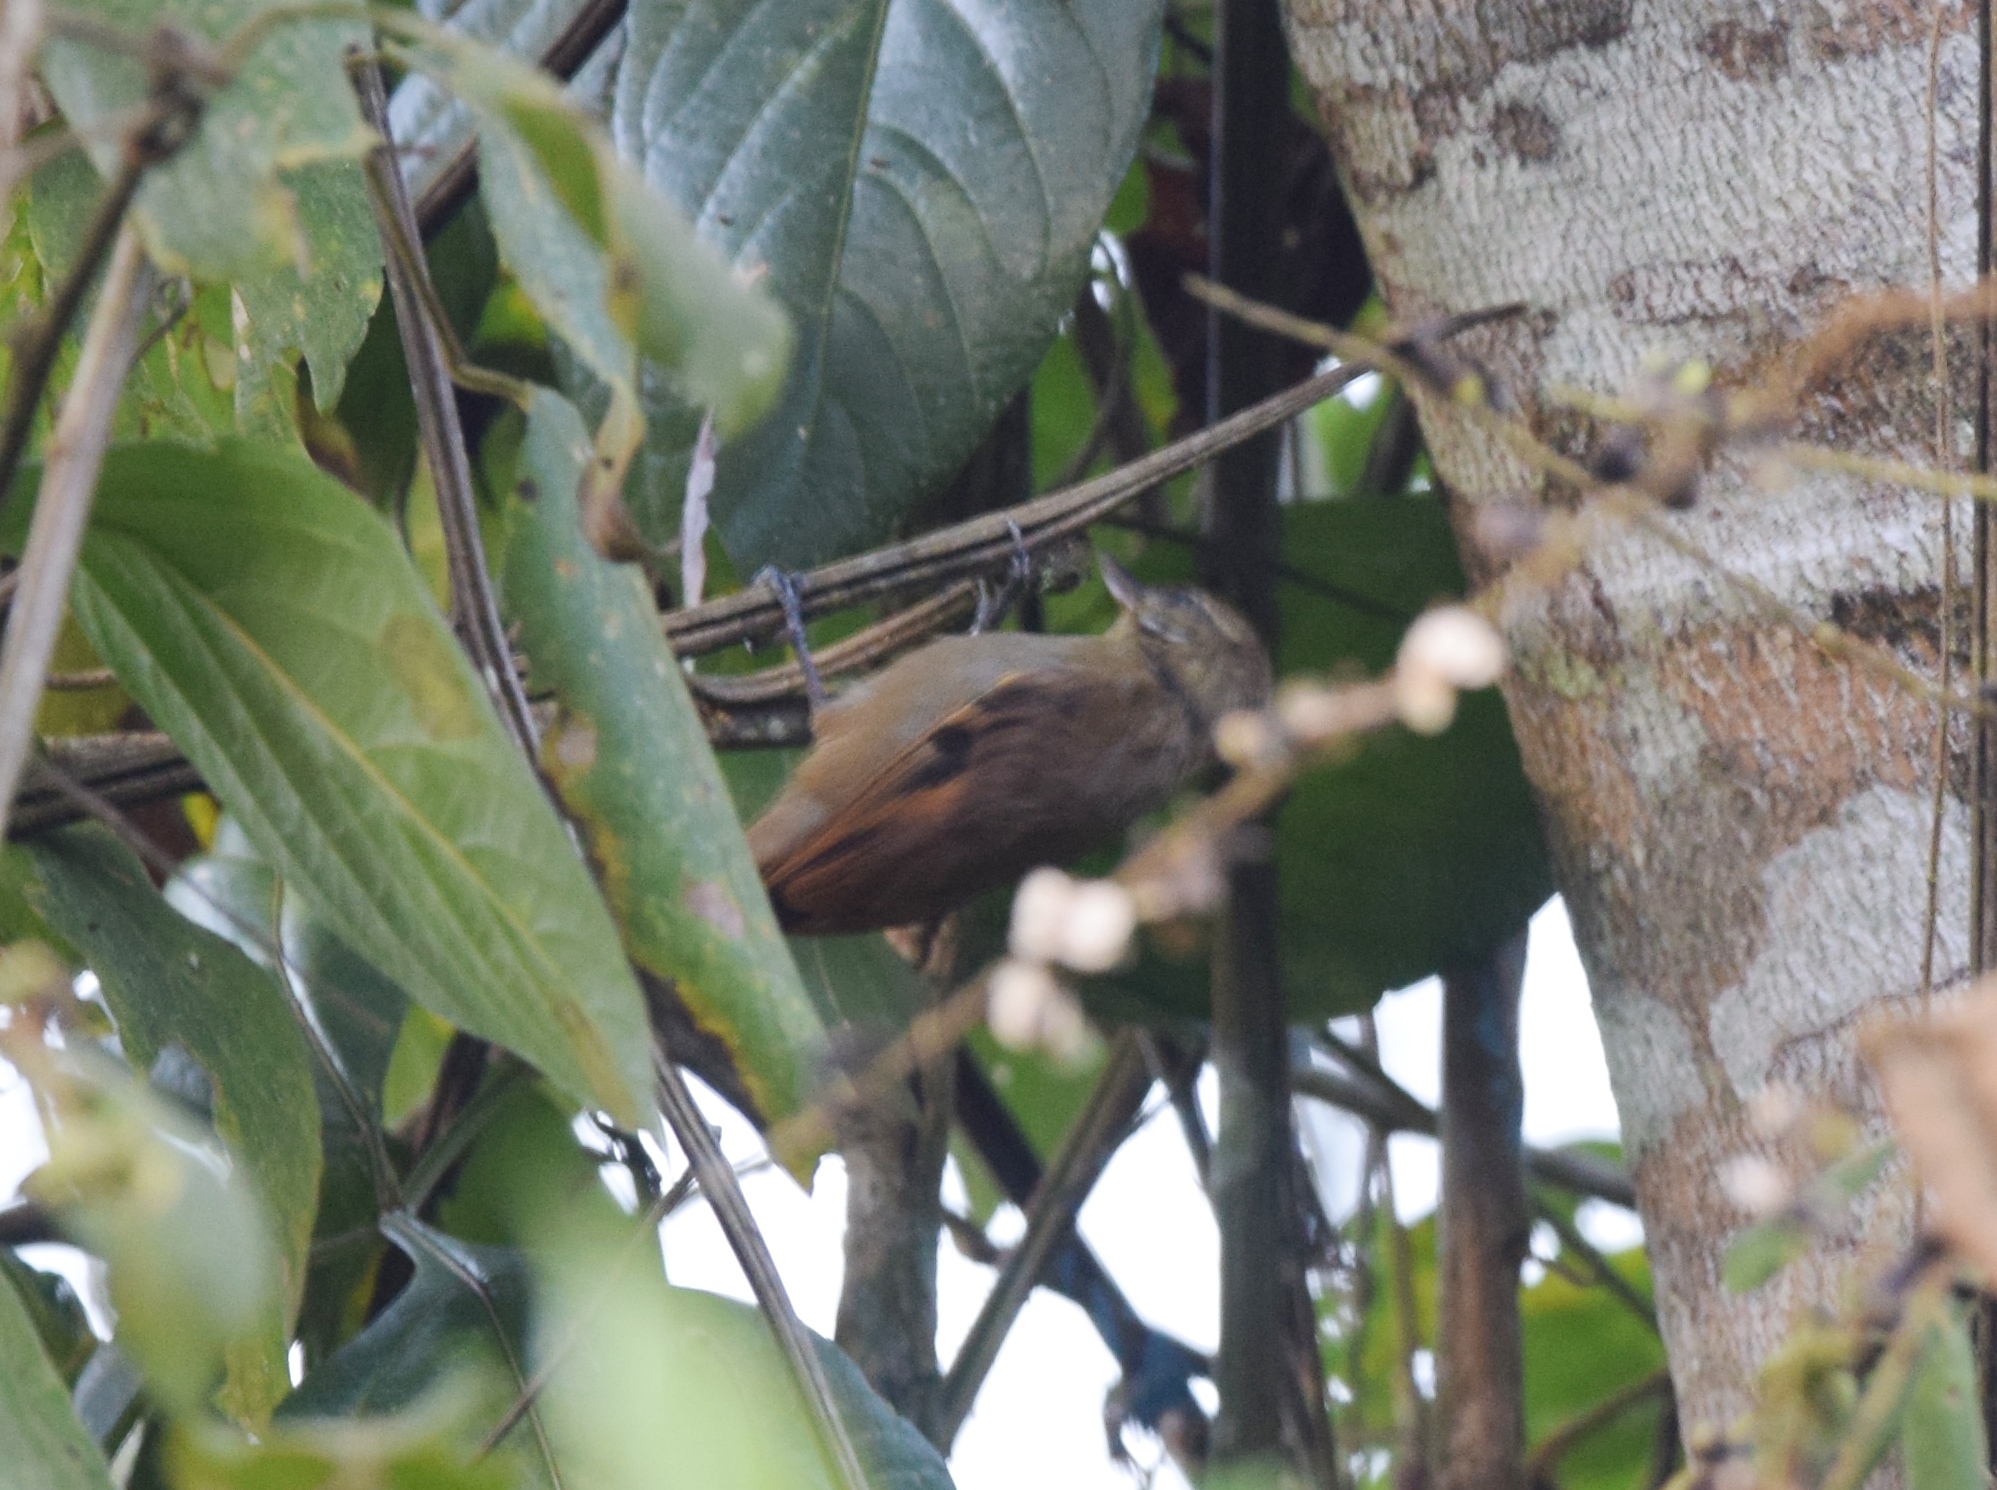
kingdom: Animalia
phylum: Chordata
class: Aves
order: Passeriformes
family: Furnariidae
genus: Xenops
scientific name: Xenops minutus
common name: Plain xenops
